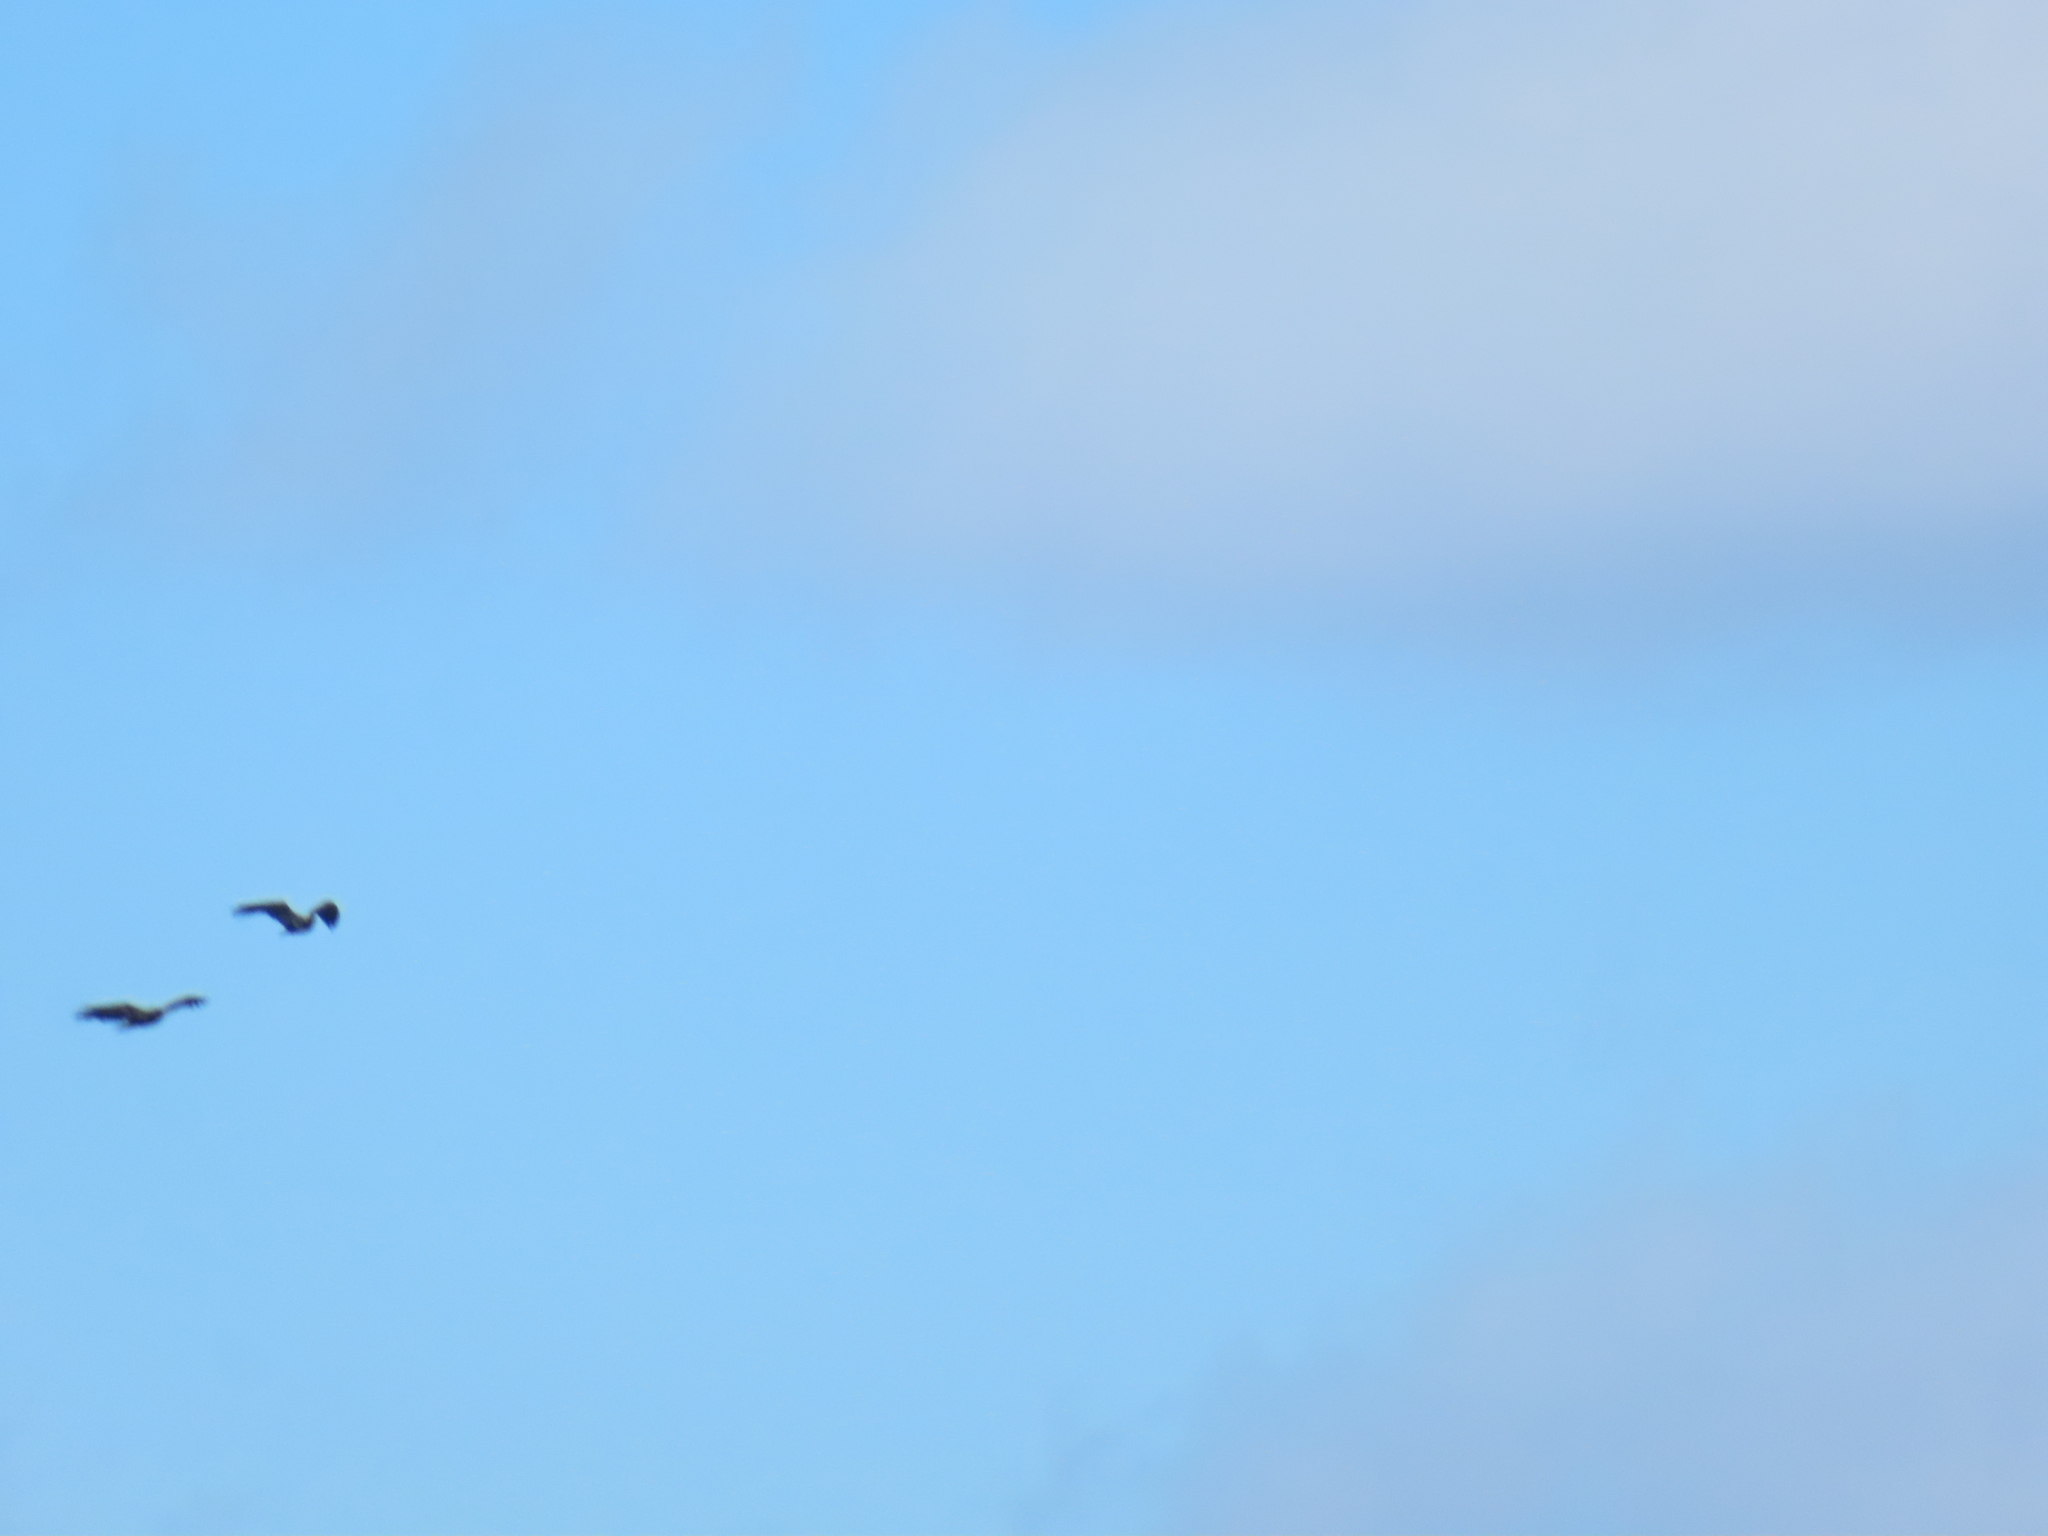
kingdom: Animalia
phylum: Chordata
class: Aves
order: Accipitriformes
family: Accipitridae
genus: Haliaeetus
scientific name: Haliaeetus leucocephalus
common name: Bald eagle
